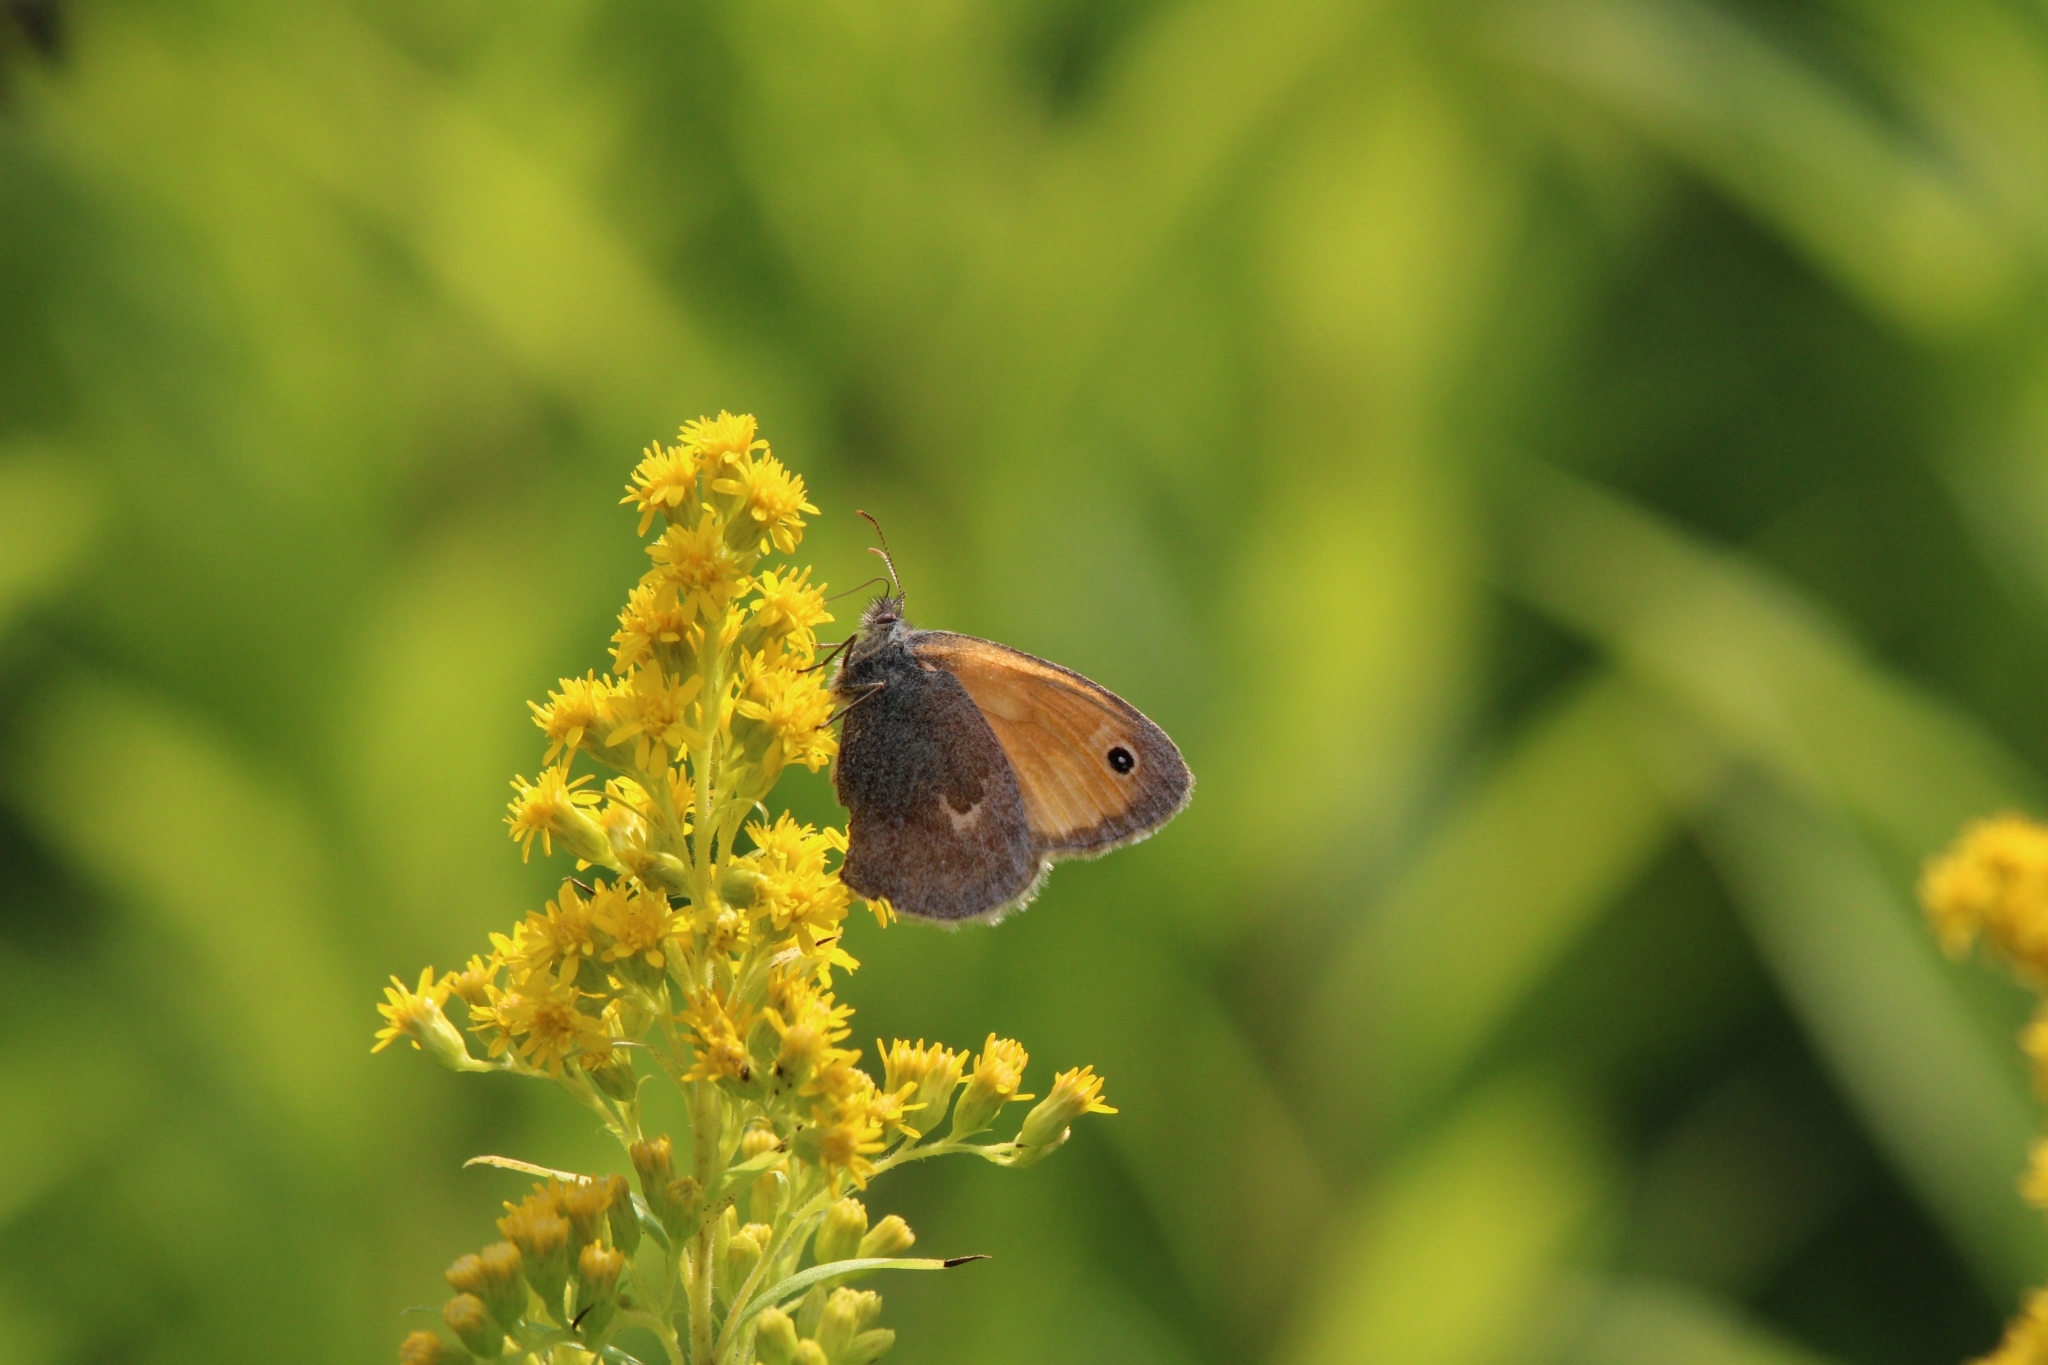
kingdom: Animalia
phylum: Arthropoda
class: Insecta
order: Lepidoptera
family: Nymphalidae
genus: Coenonympha
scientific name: Coenonympha pamphilus
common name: Small heath
